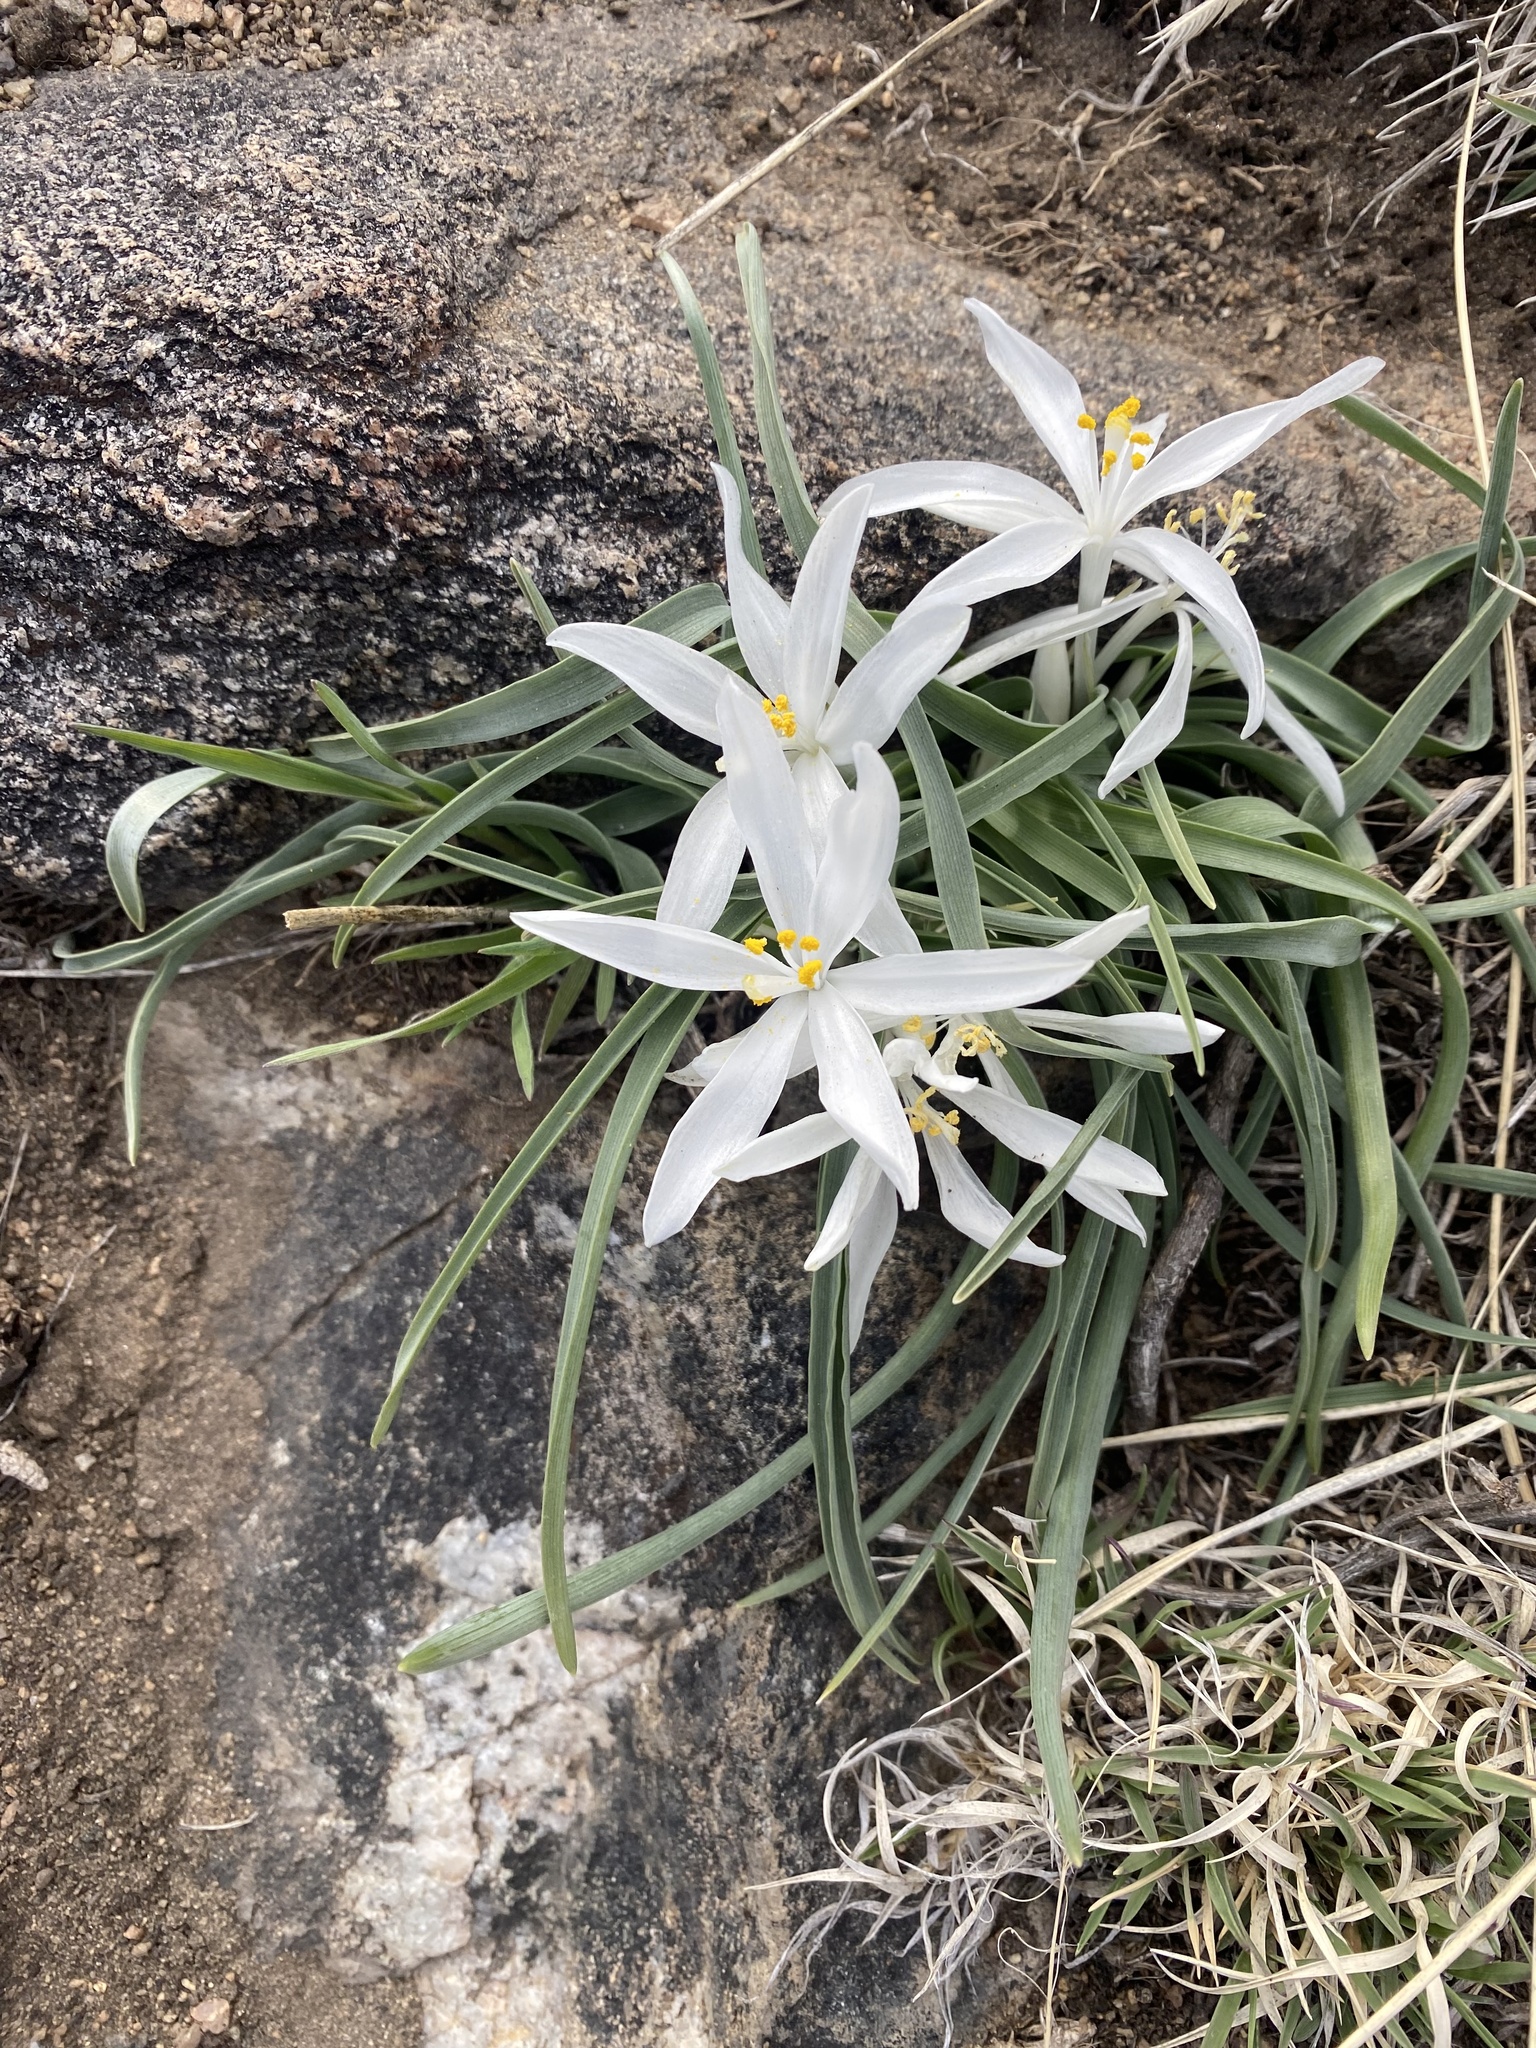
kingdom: Plantae
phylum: Tracheophyta
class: Liliopsida
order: Asparagales
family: Asparagaceae
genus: Leucocrinum
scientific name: Leucocrinum montanum
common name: Mountain-lily
